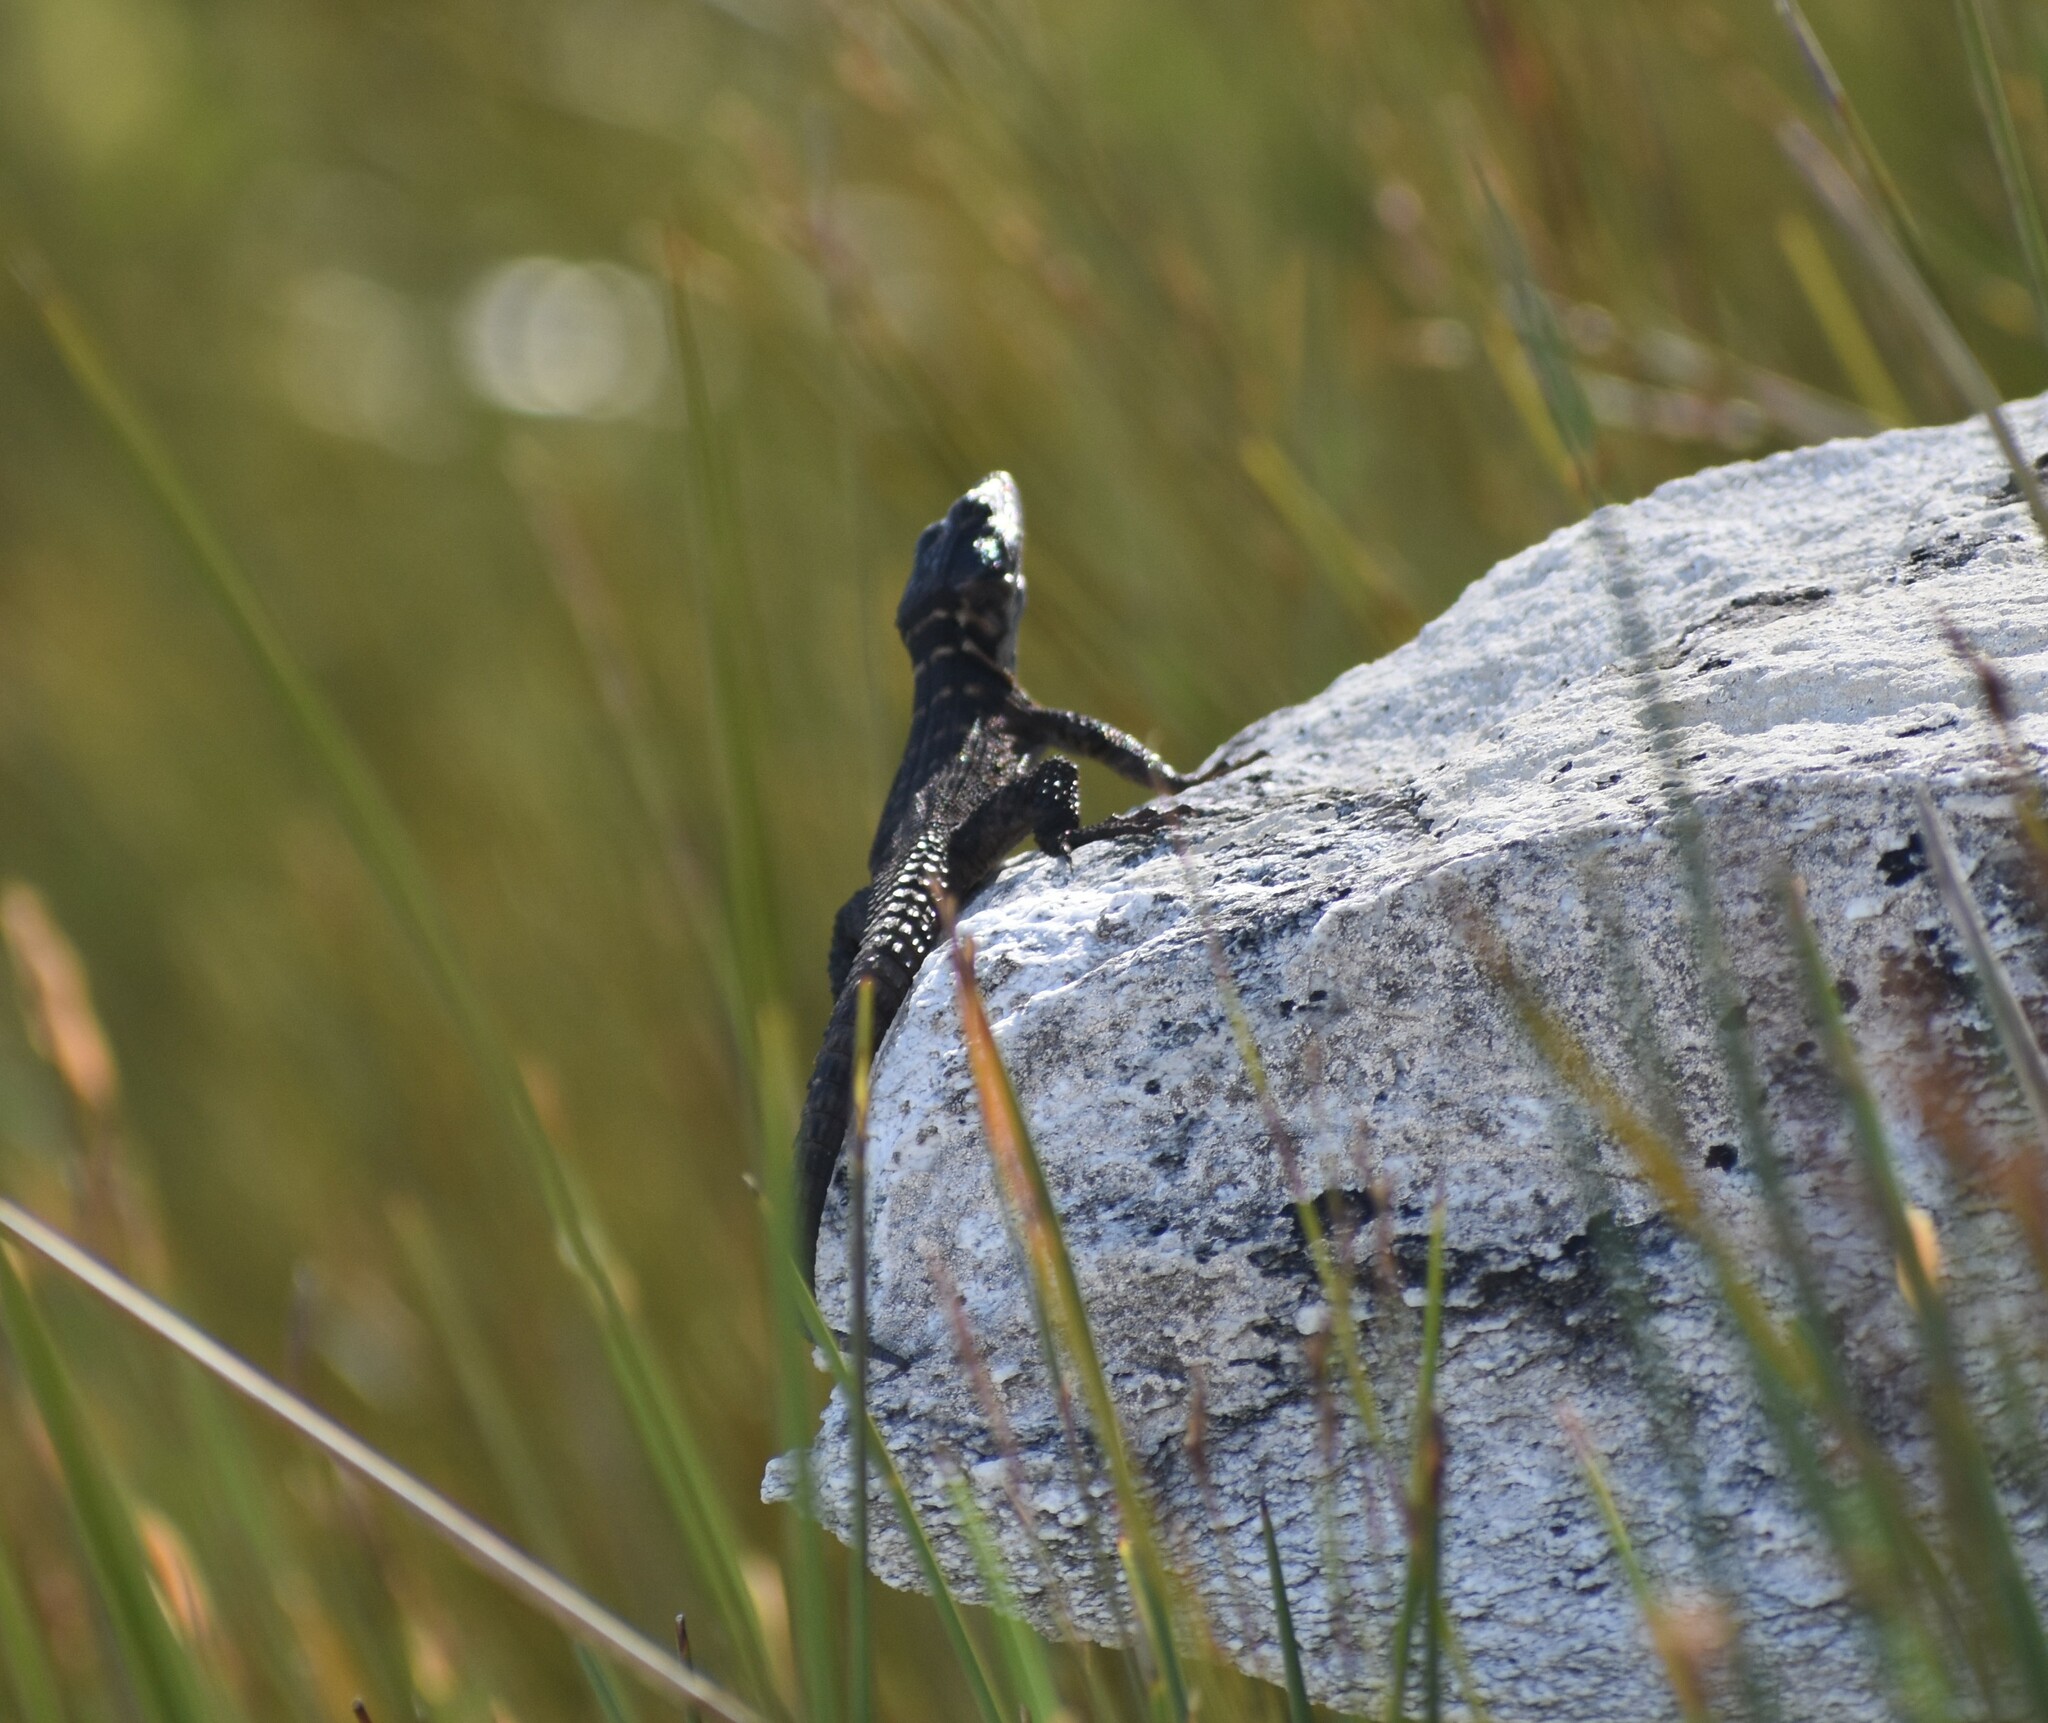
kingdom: Animalia
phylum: Chordata
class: Squamata
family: Cordylidae
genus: Pseudocordylus
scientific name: Pseudocordylus microlepidotus
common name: Cape crag lizard
